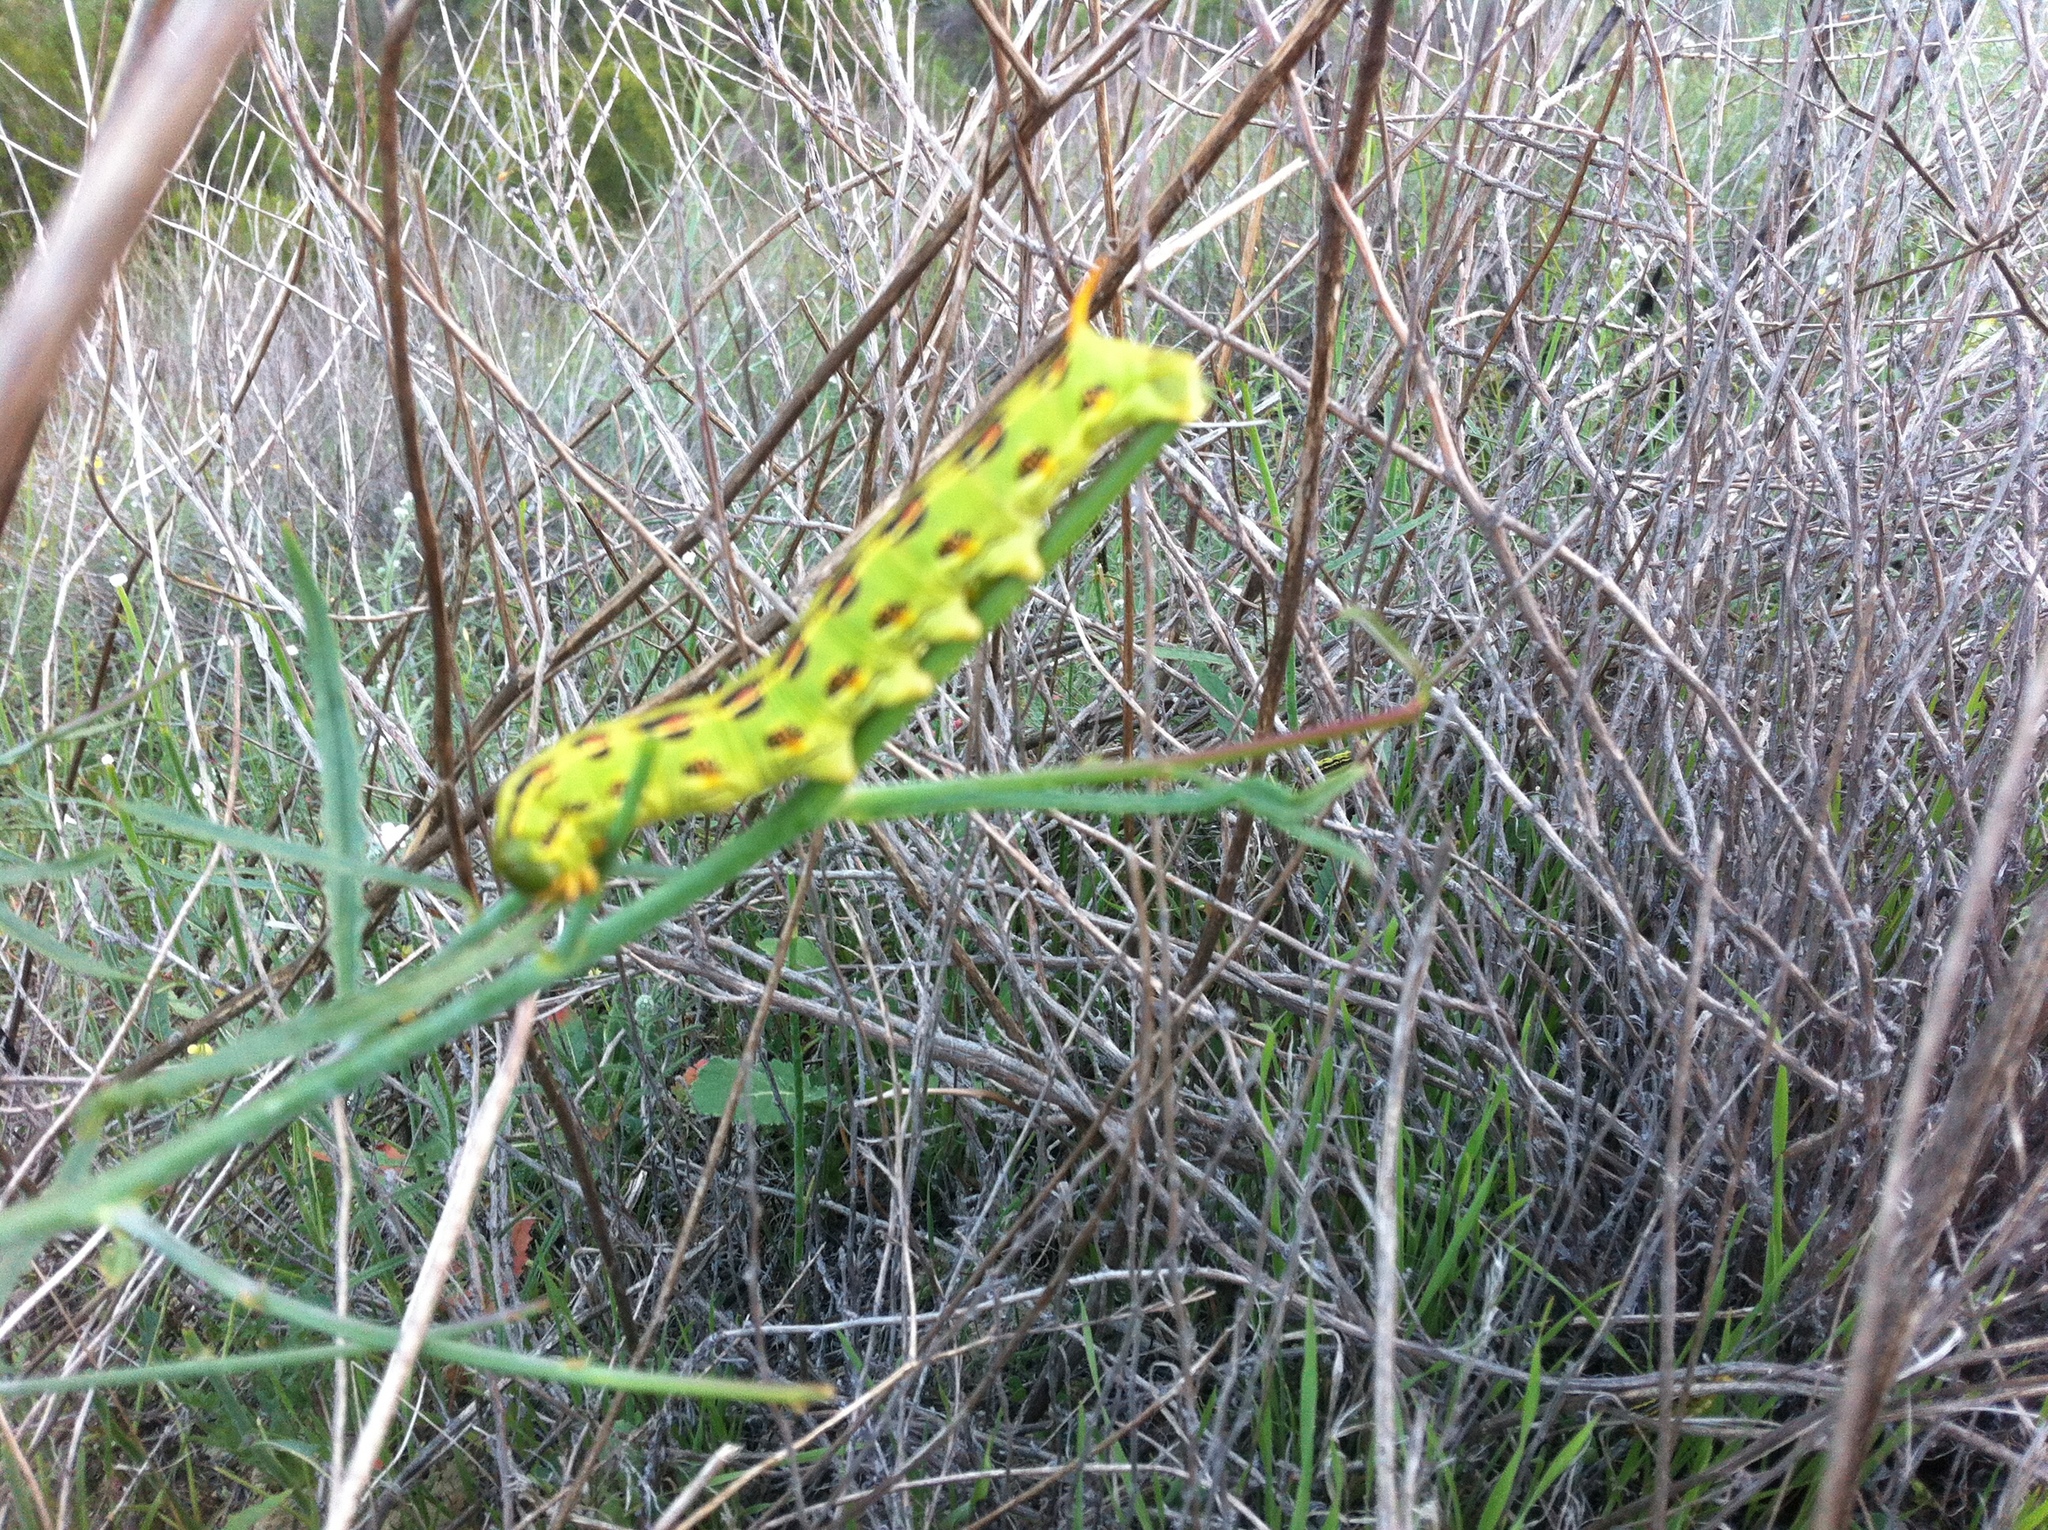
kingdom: Animalia
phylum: Arthropoda
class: Insecta
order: Lepidoptera
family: Sphingidae
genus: Hyles
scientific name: Hyles lineata
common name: White-lined sphinx
